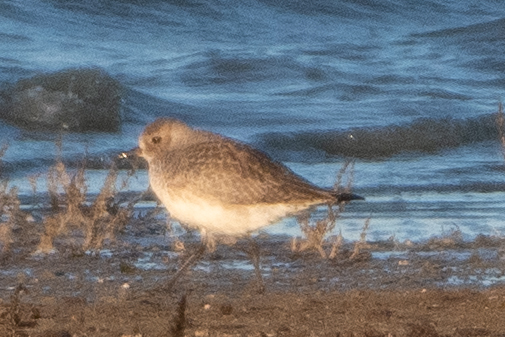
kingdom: Animalia
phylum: Chordata
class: Aves
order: Charadriiformes
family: Charadriidae
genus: Pluvialis
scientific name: Pluvialis squatarola
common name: Grey plover
